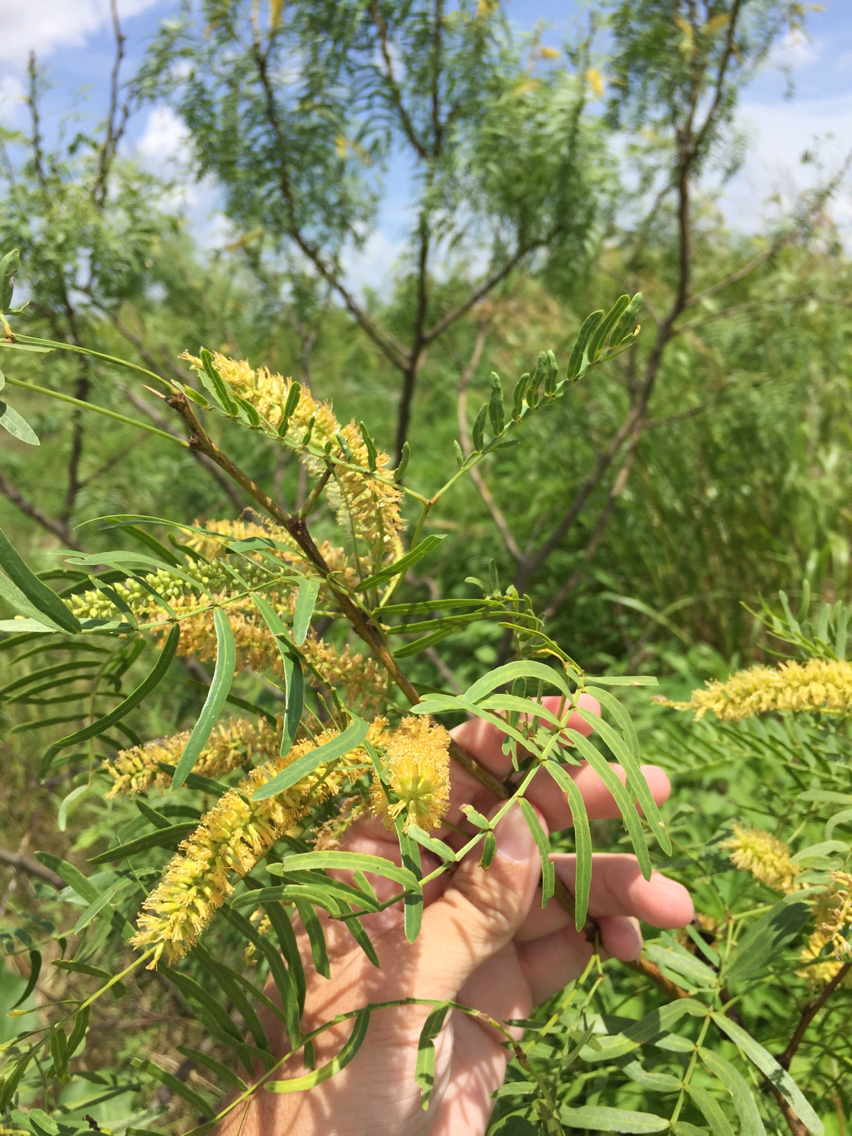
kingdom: Plantae
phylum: Tracheophyta
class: Magnoliopsida
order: Fabales
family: Fabaceae
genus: Prosopis
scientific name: Prosopis glandulosa
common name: Honey mesquite
